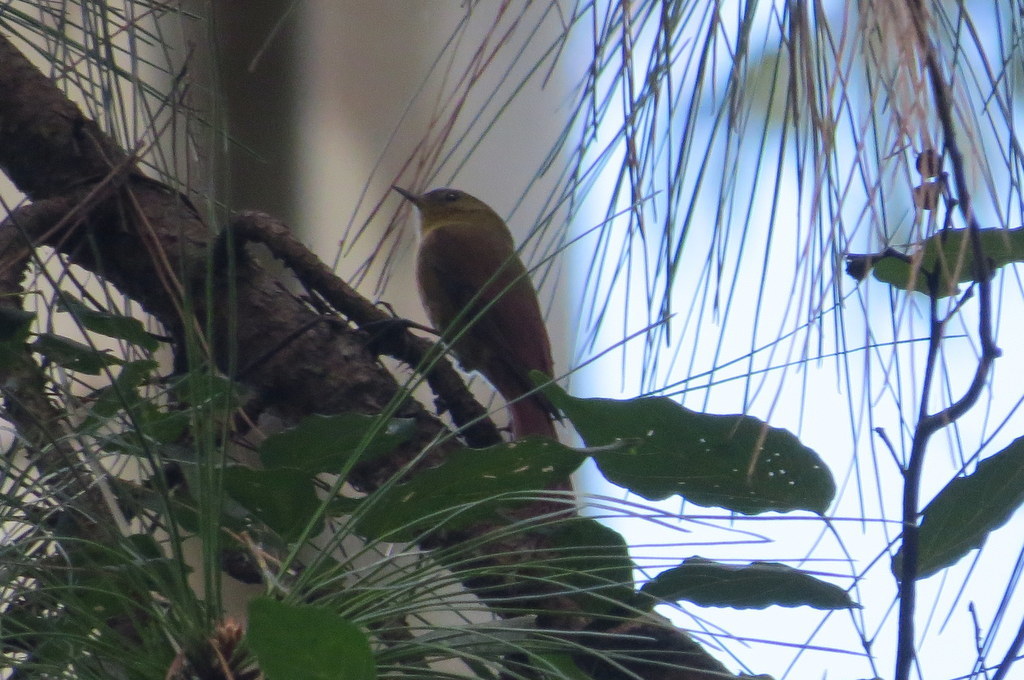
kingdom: Animalia
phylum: Chordata
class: Aves
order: Passeriformes
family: Furnariidae
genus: Sittasomus
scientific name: Sittasomus griseicapillus
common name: Olivaceous woodcreeper
